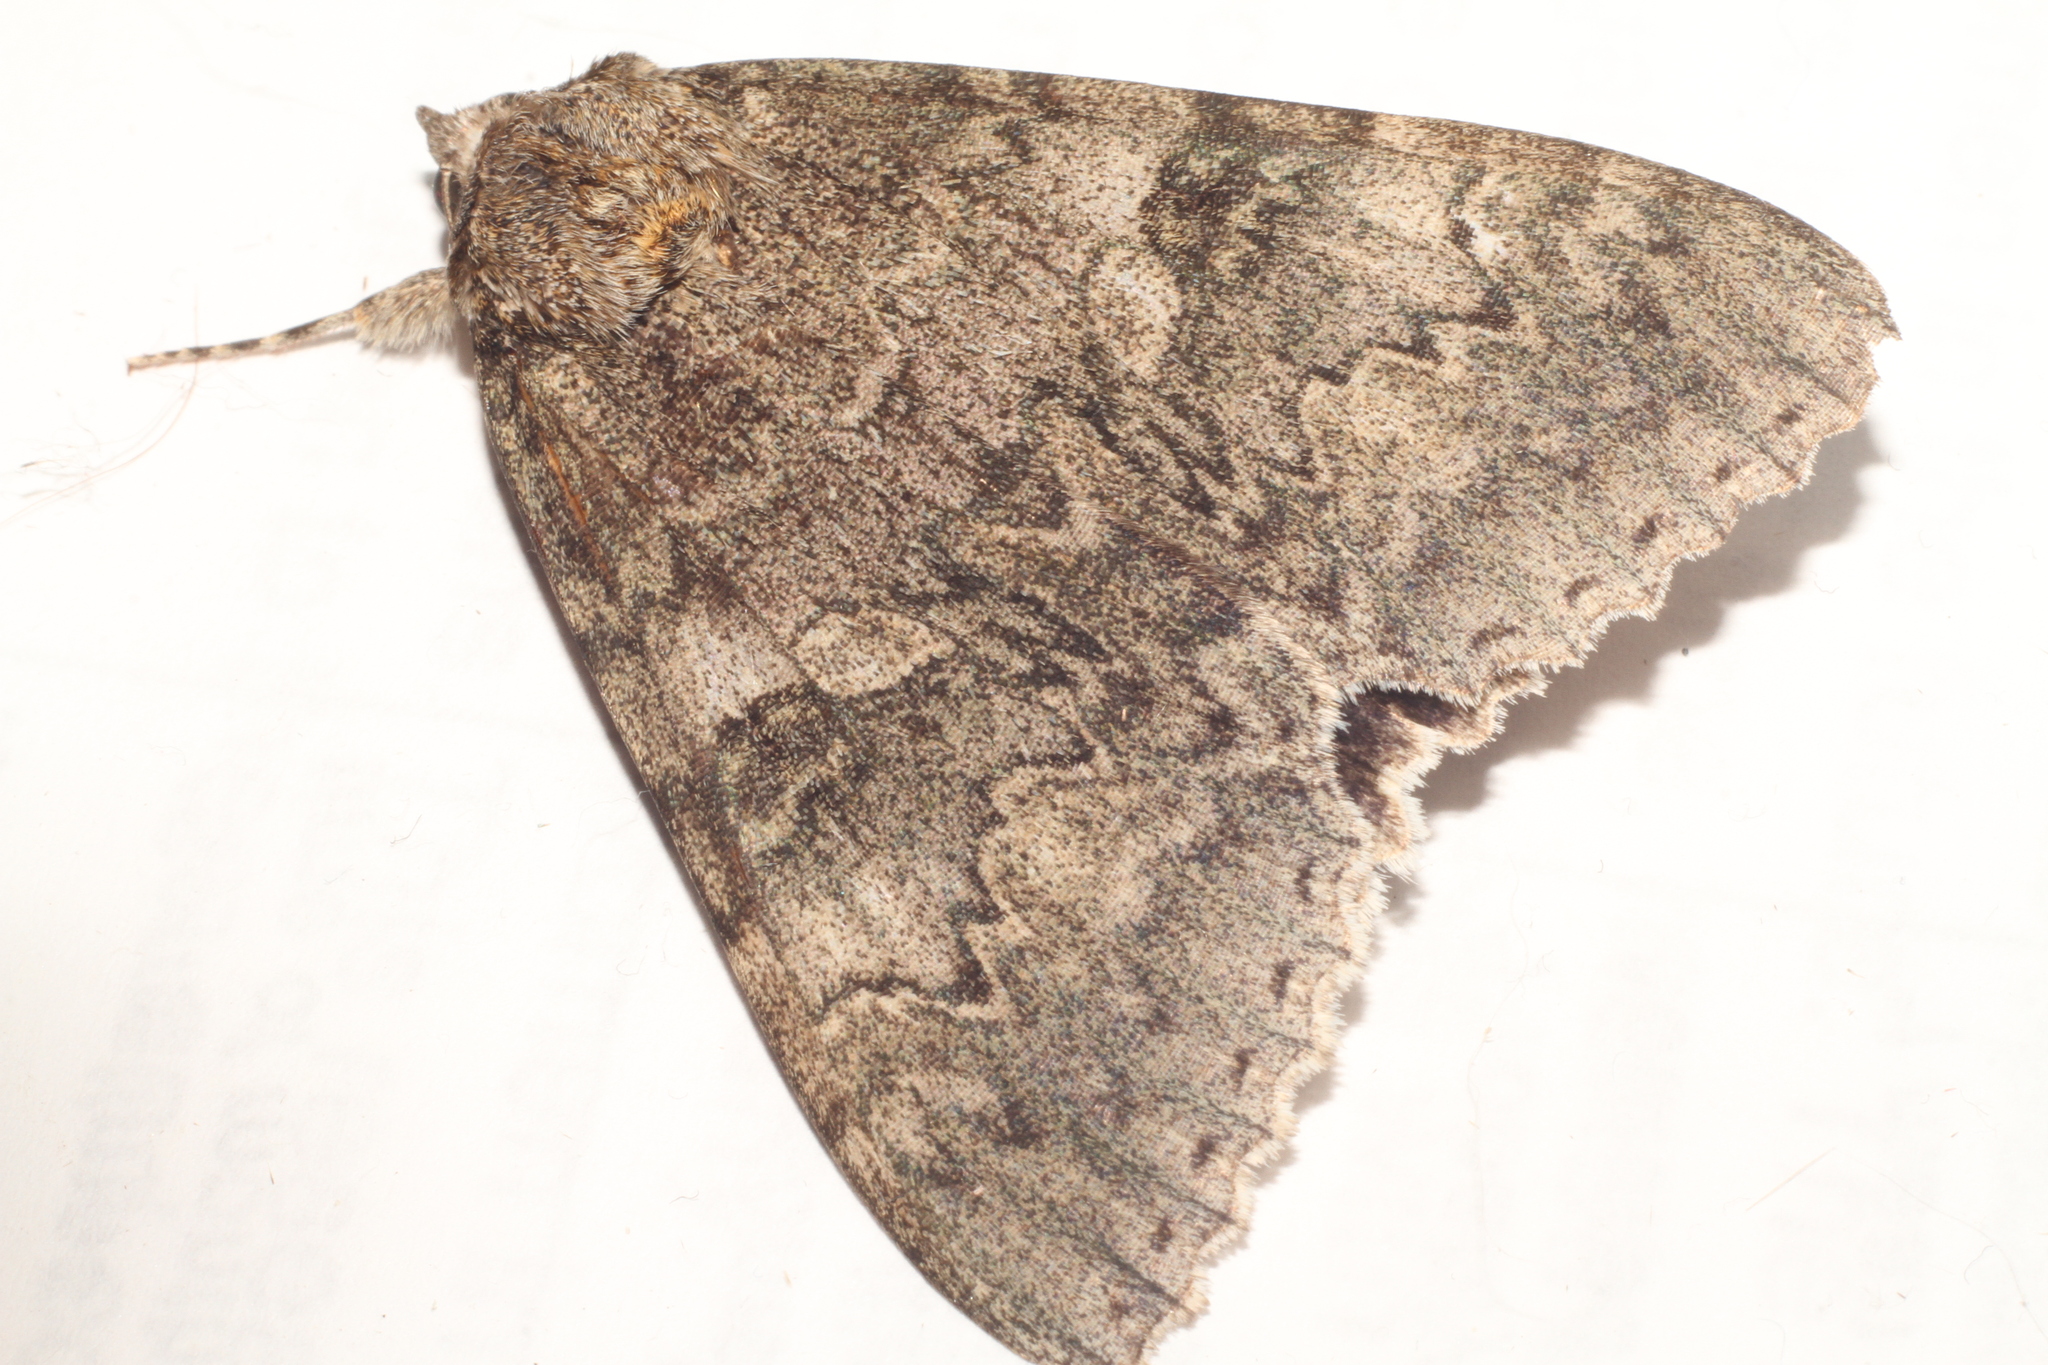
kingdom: Animalia
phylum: Arthropoda
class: Insecta
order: Lepidoptera
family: Erebidae
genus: Catocala
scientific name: Catocala nupta
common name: Red underwing
